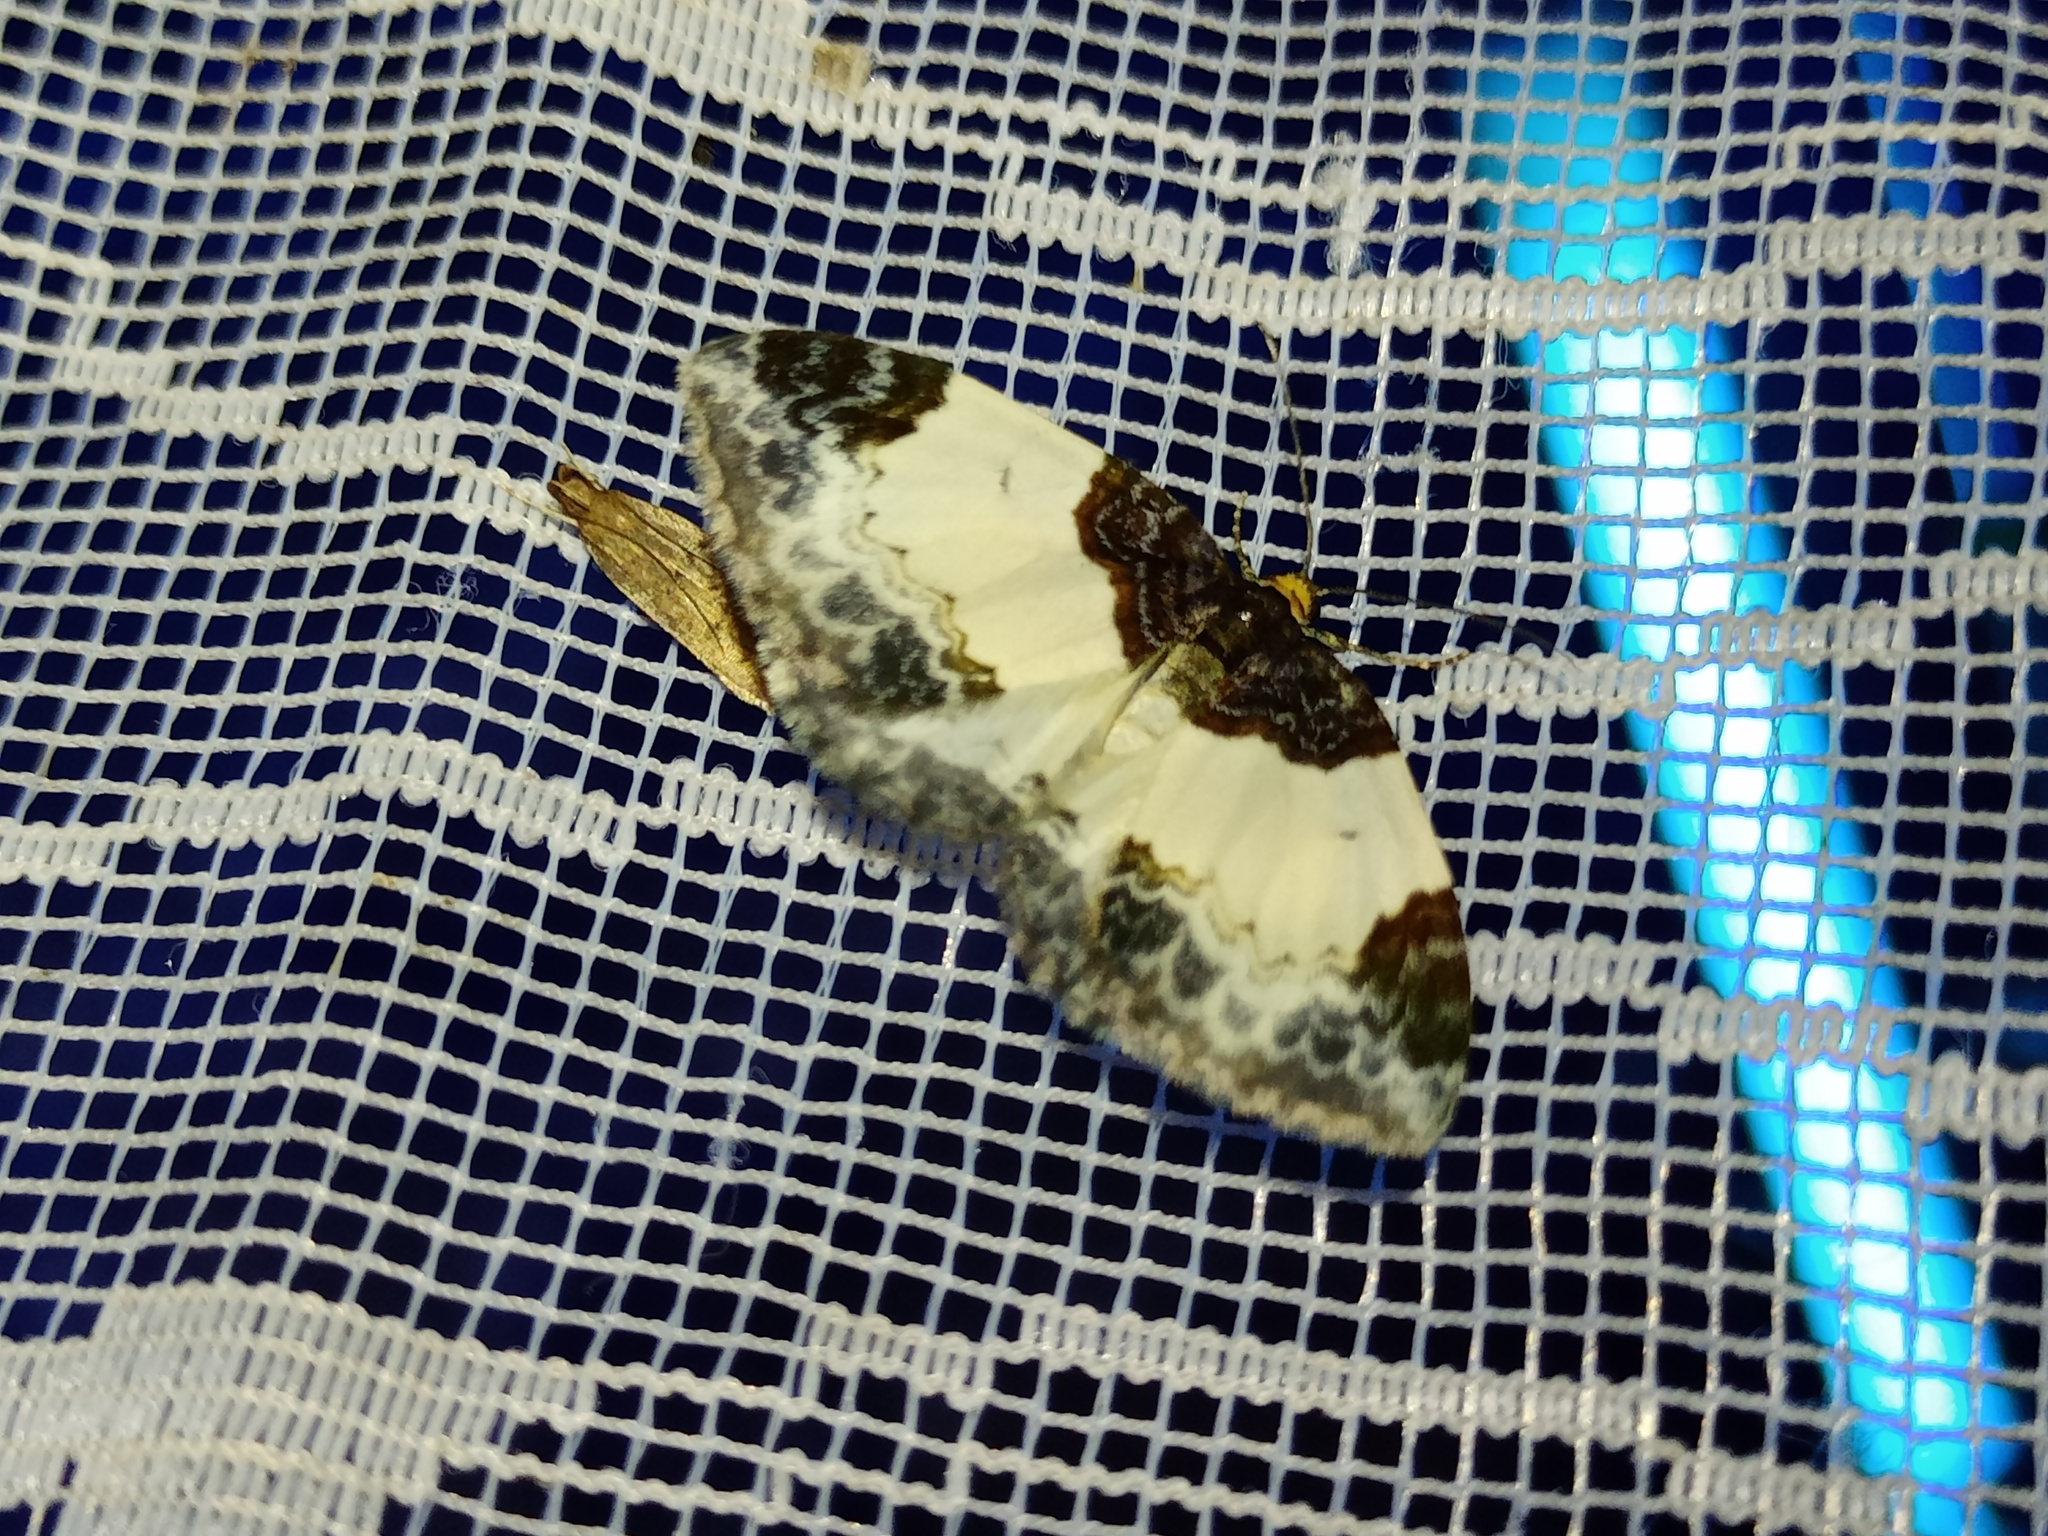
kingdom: Animalia
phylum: Arthropoda
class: Insecta
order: Lepidoptera
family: Geometridae
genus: Mesoleuca
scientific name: Mesoleuca albicillata
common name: Beautiful carpet
